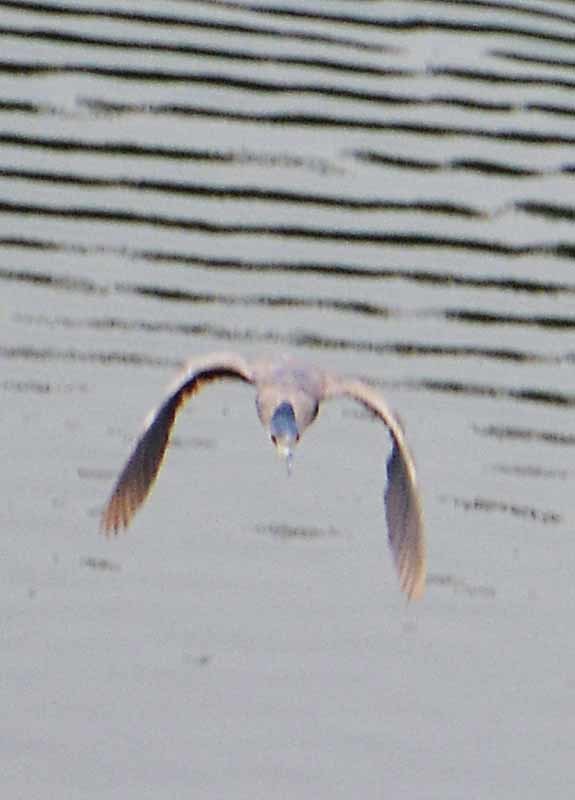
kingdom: Animalia
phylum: Chordata
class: Aves
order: Pelecaniformes
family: Ardeidae
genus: Nycticorax
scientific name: Nycticorax nycticorax
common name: Black-crowned night heron
